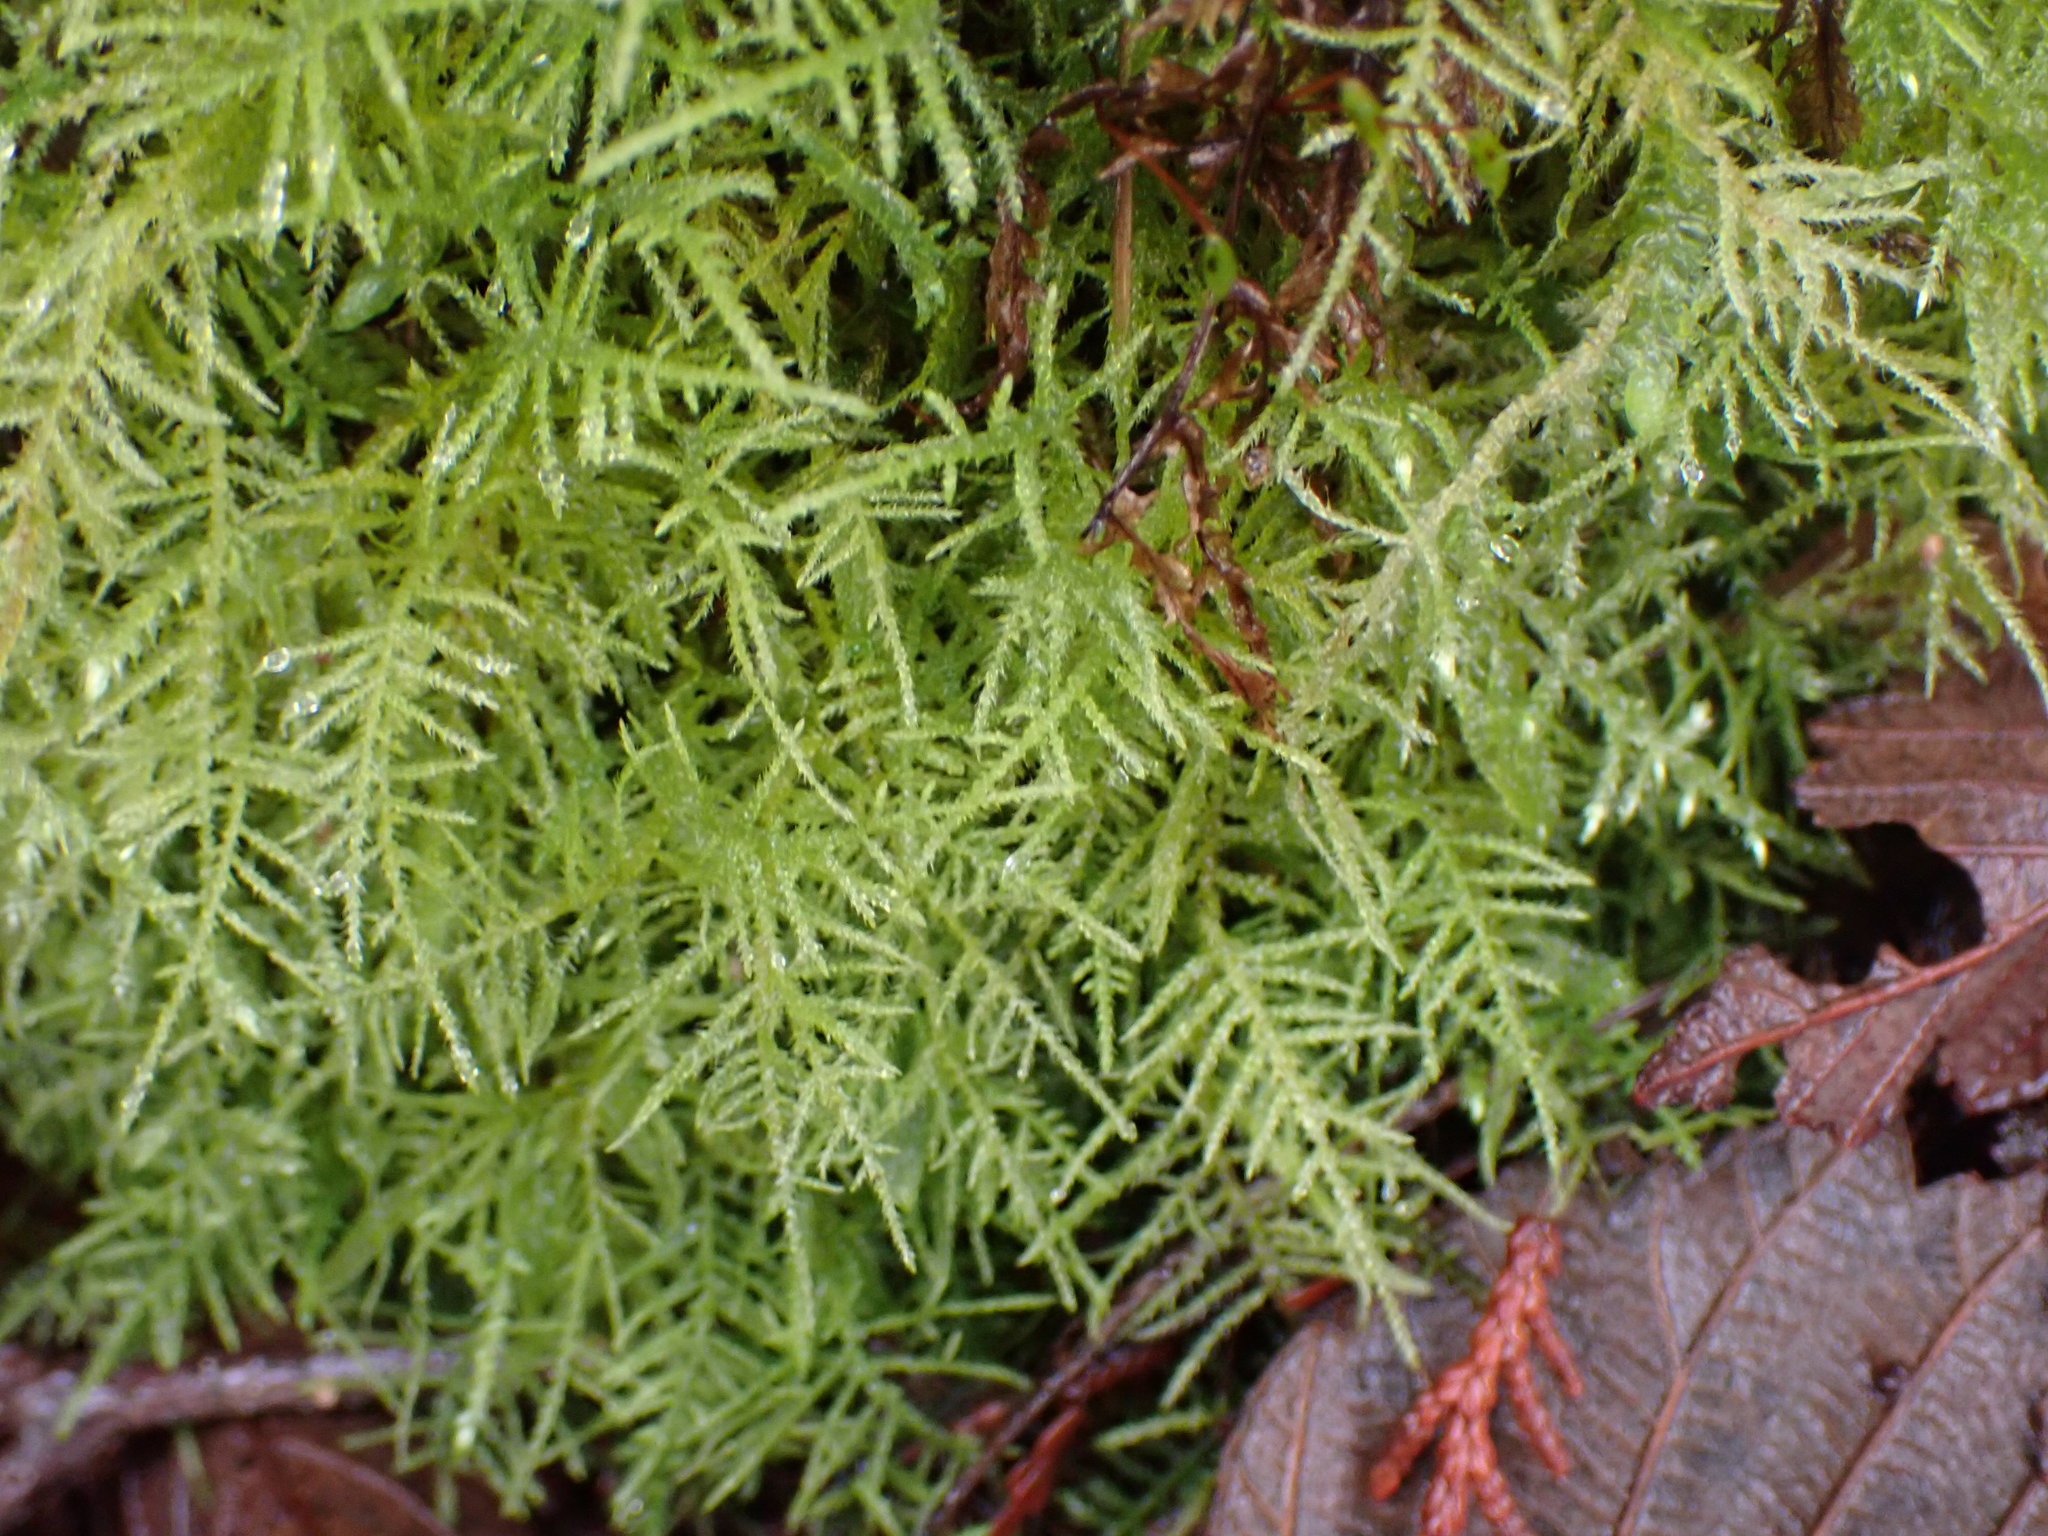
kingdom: Plantae
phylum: Bryophyta
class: Bryopsida
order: Hypnales
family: Brachytheciaceae
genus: Kindbergia
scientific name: Kindbergia praelonga
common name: Slender beaked moss
